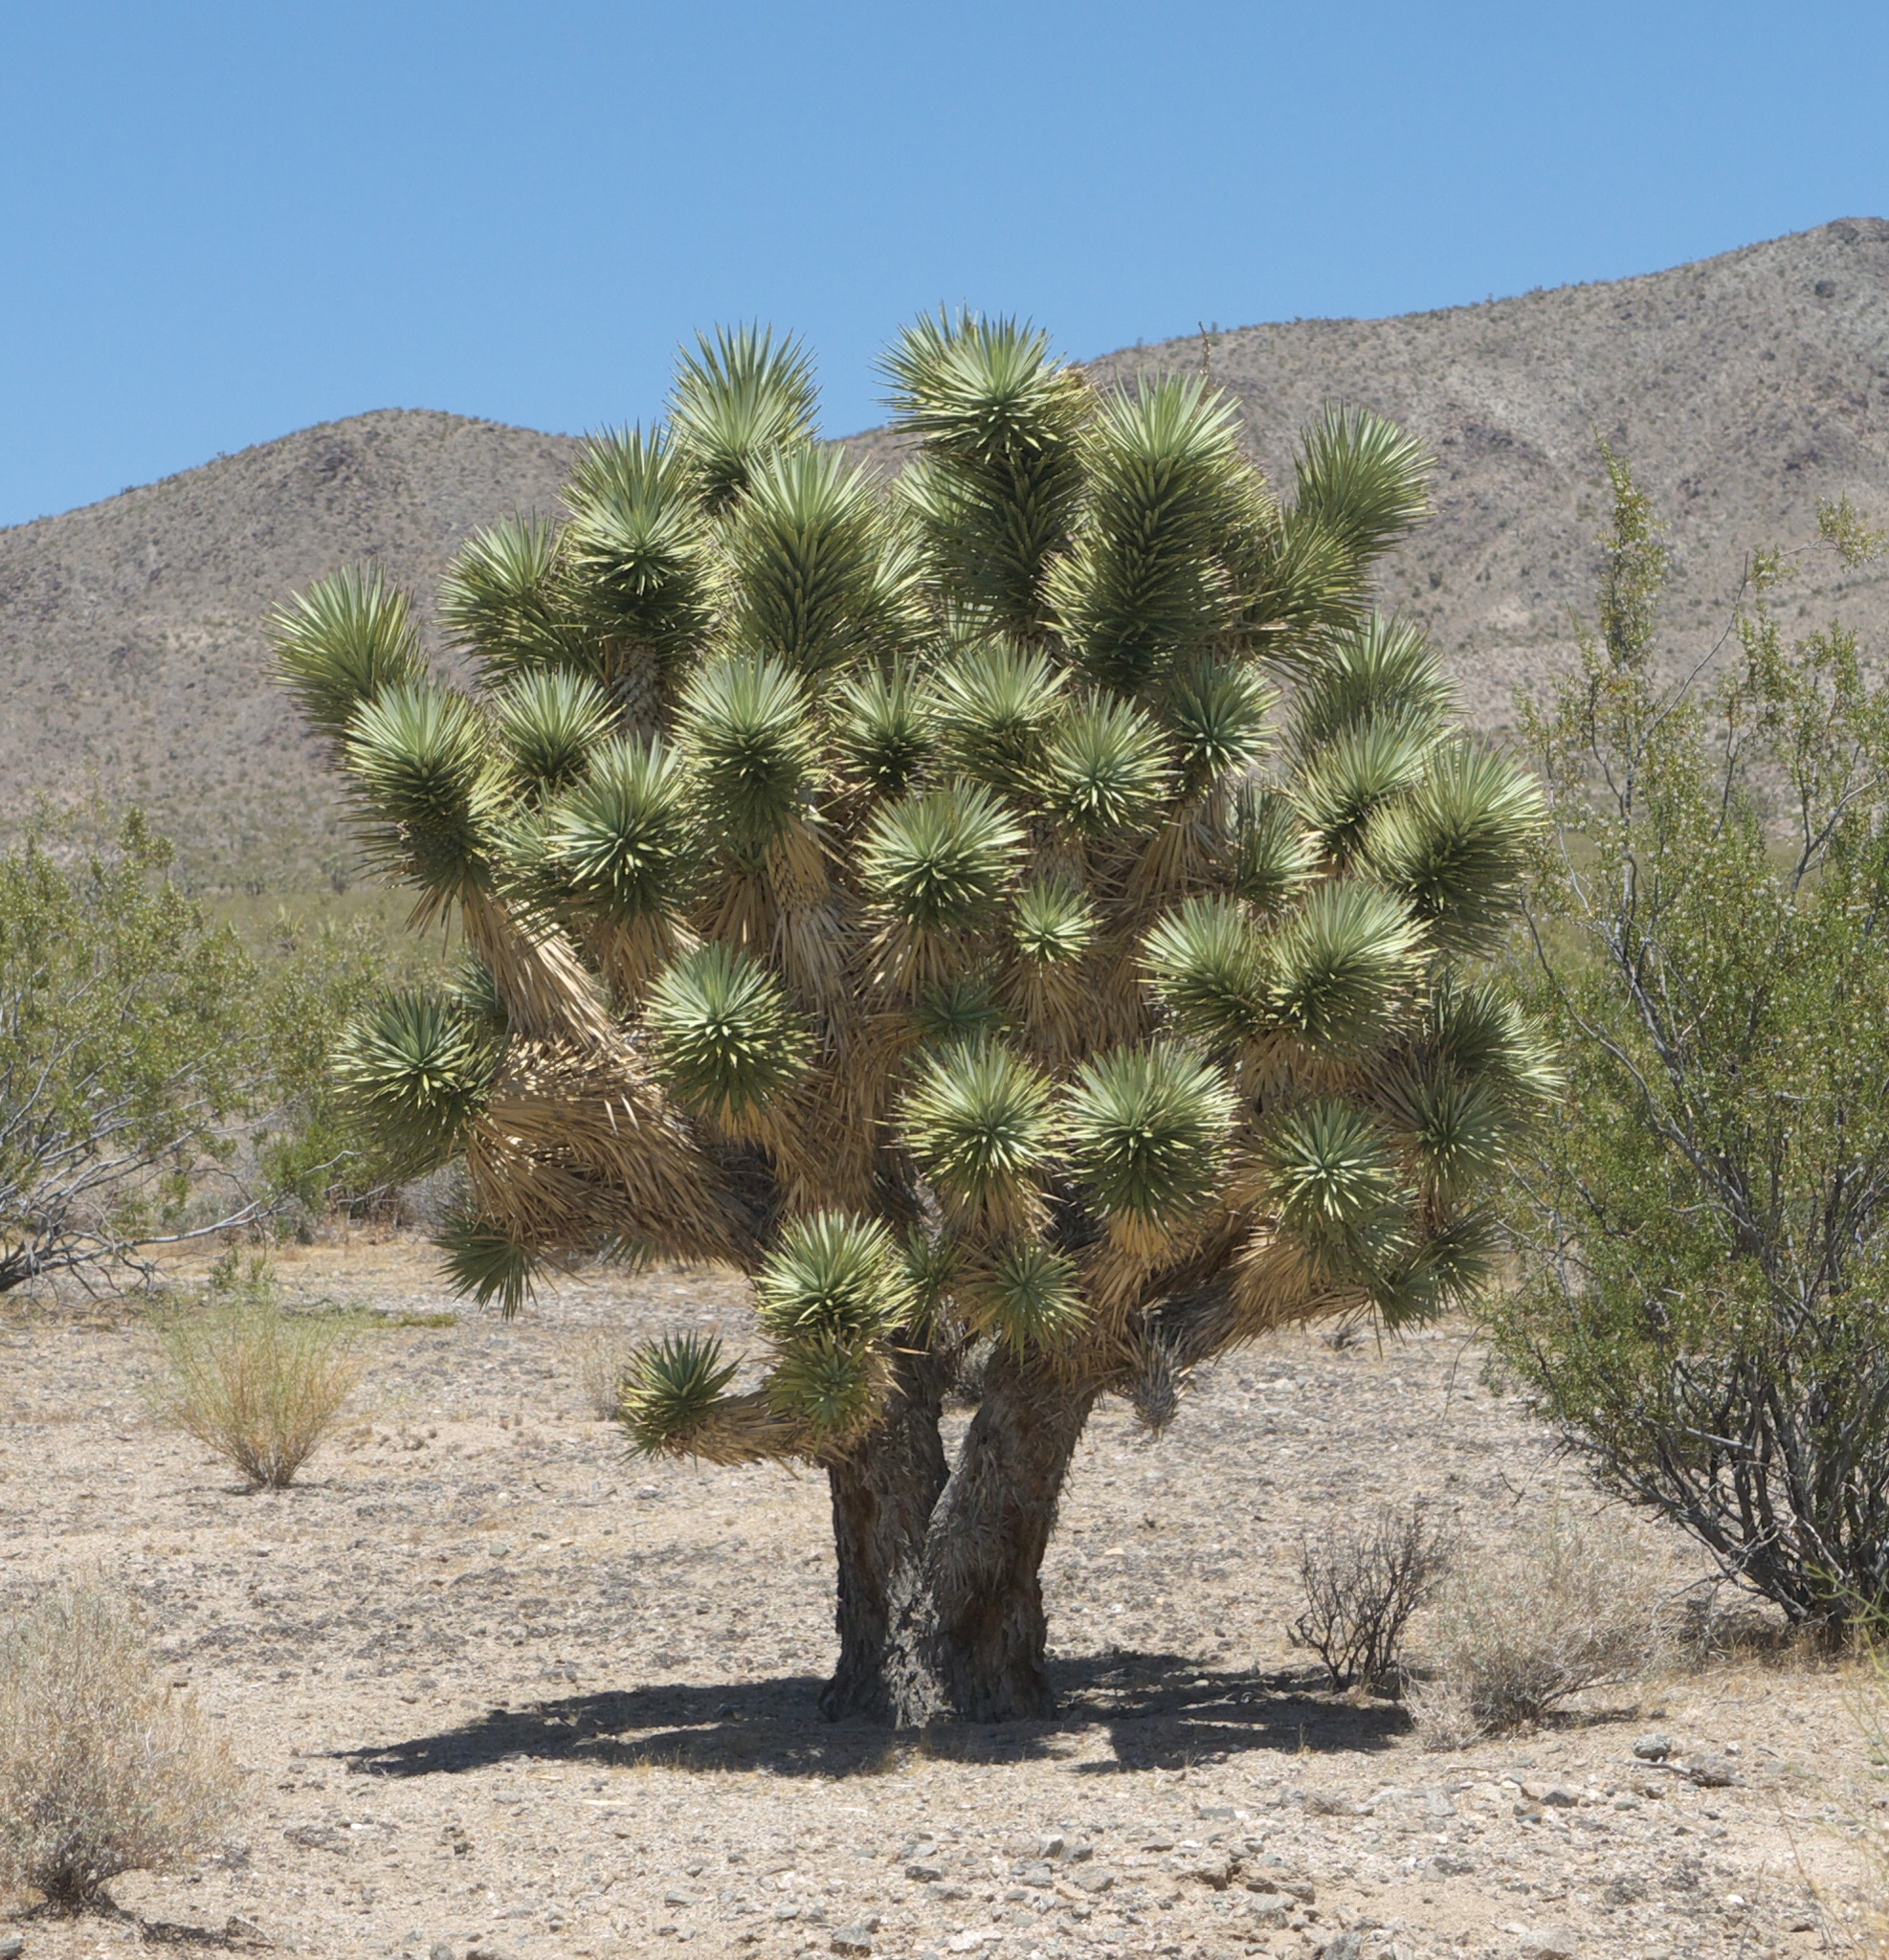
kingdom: Plantae
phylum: Tracheophyta
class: Liliopsida
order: Asparagales
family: Asparagaceae
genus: Yucca
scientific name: Yucca brevifolia
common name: Joshua tree
